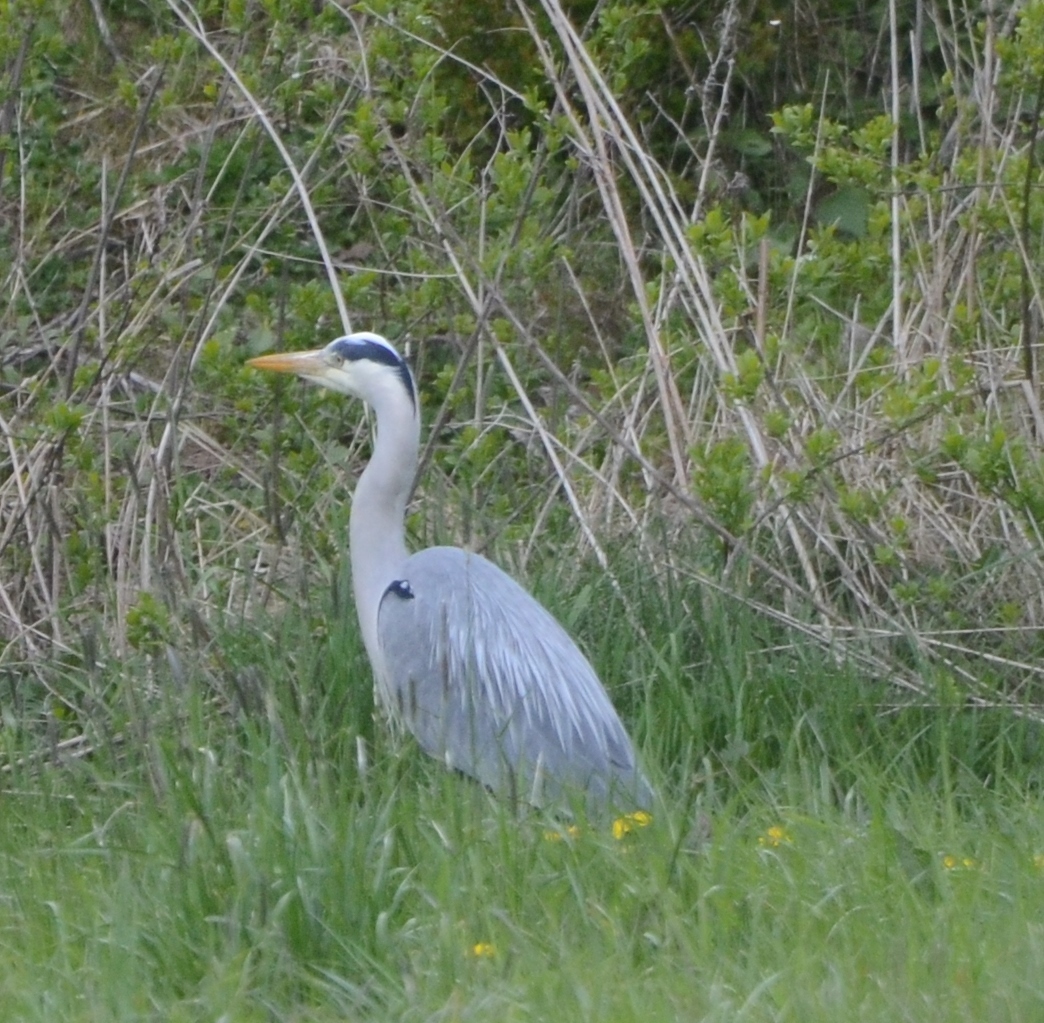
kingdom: Animalia
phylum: Chordata
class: Aves
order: Pelecaniformes
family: Ardeidae
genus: Ardea
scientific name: Ardea cinerea
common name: Grey heron
